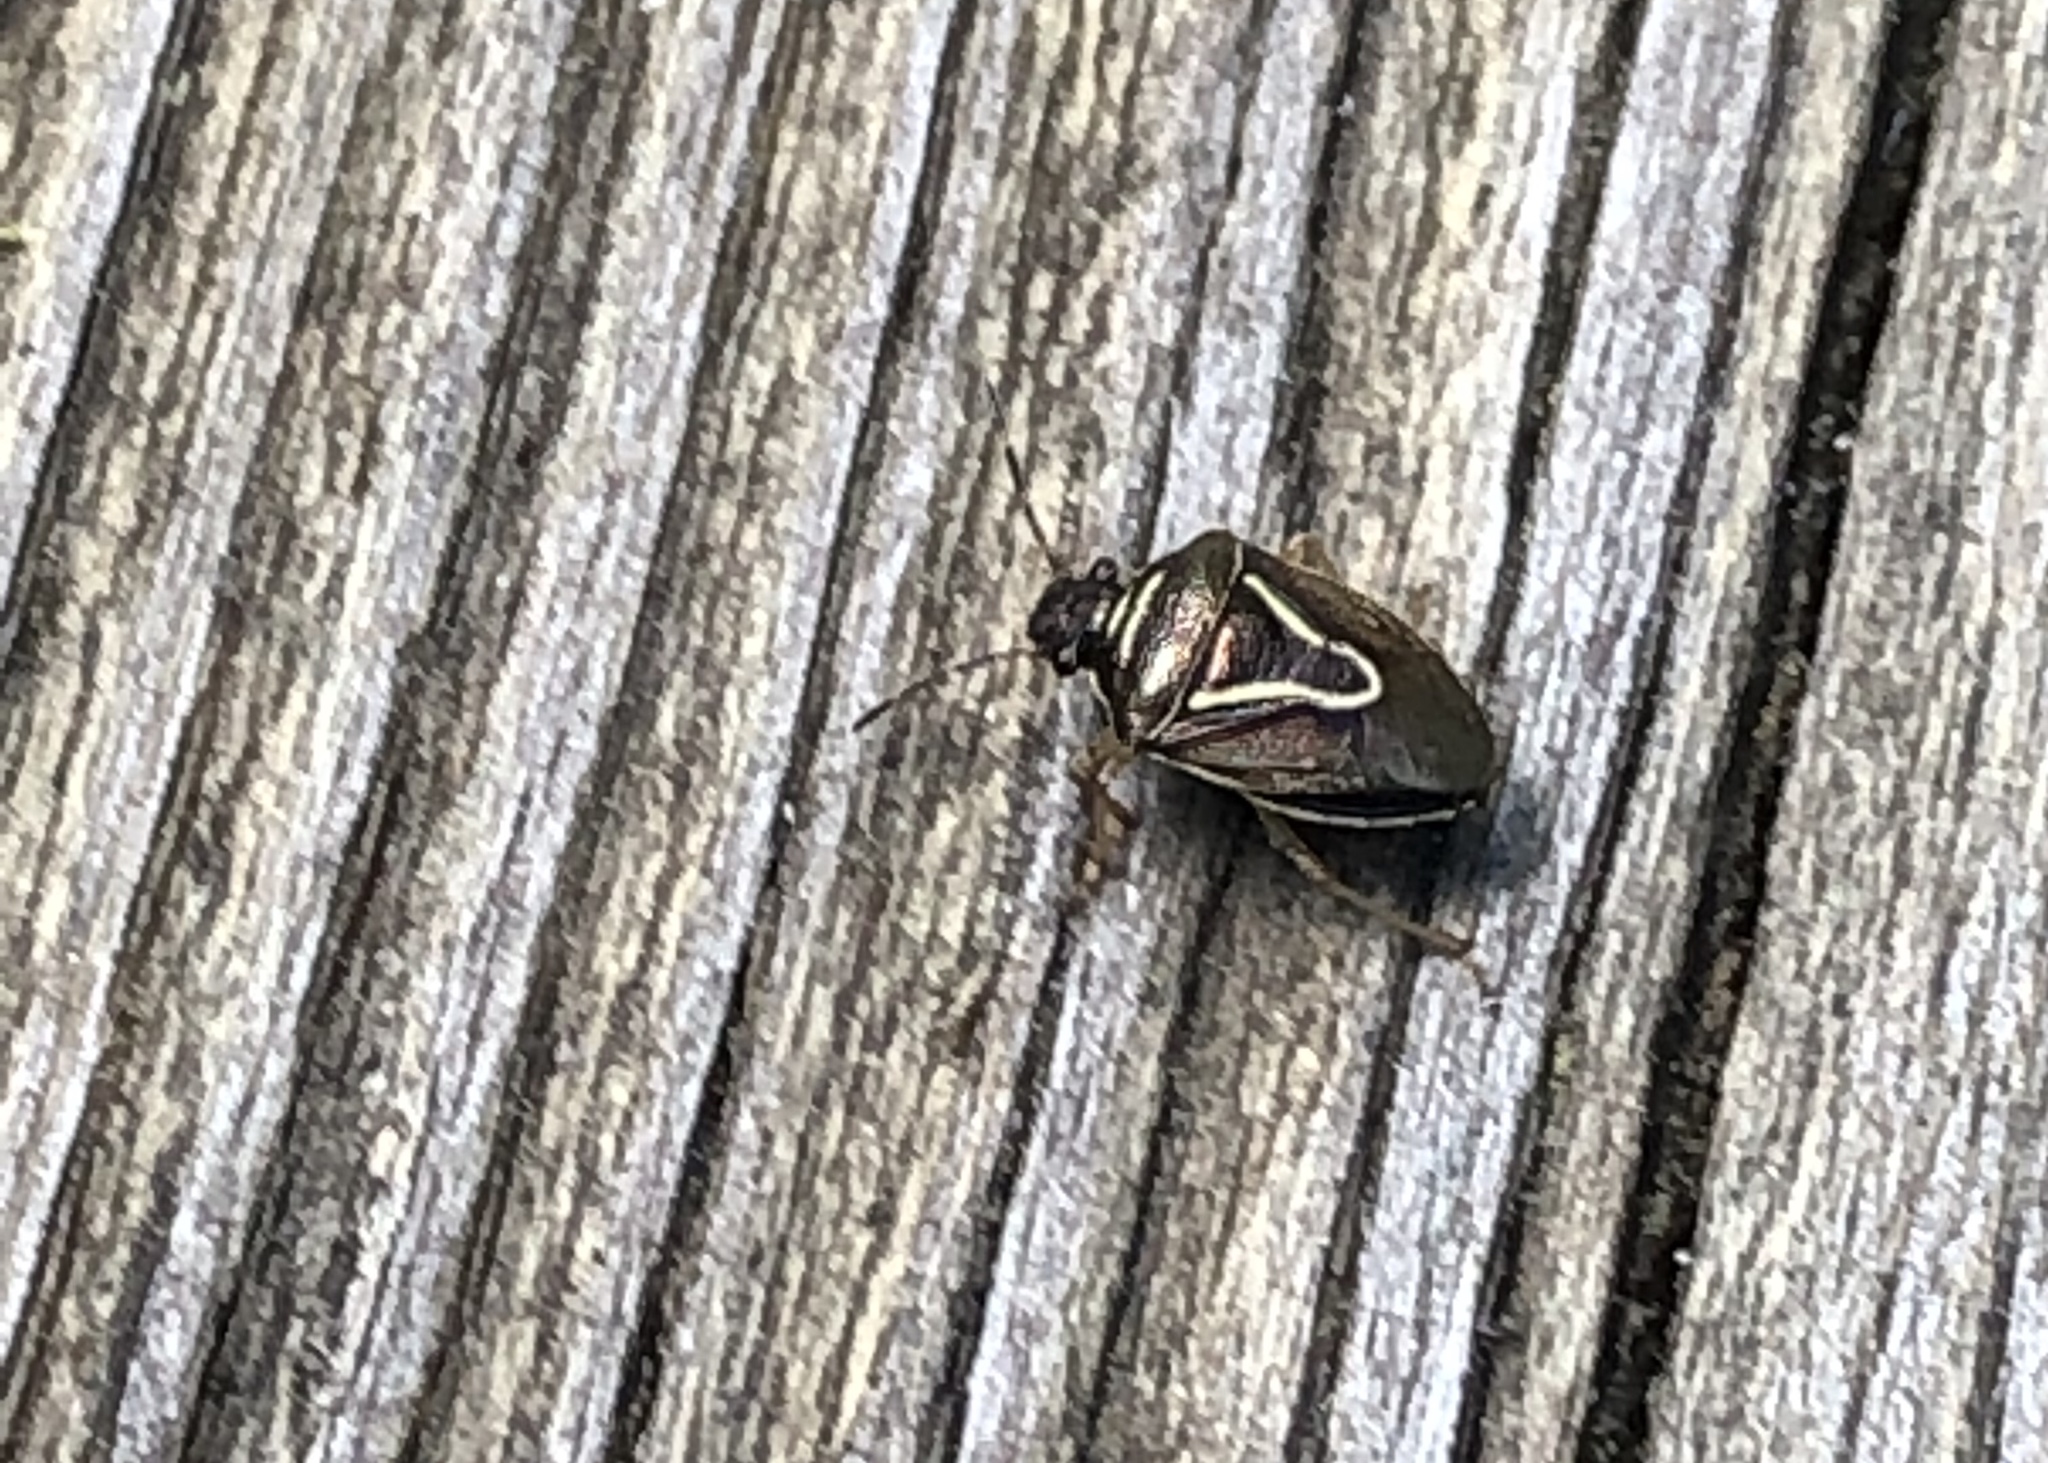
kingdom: Animalia
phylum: Arthropoda
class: Insecta
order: Hemiptera
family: Pentatomidae
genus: Mormidea
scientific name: Mormidea lugens
